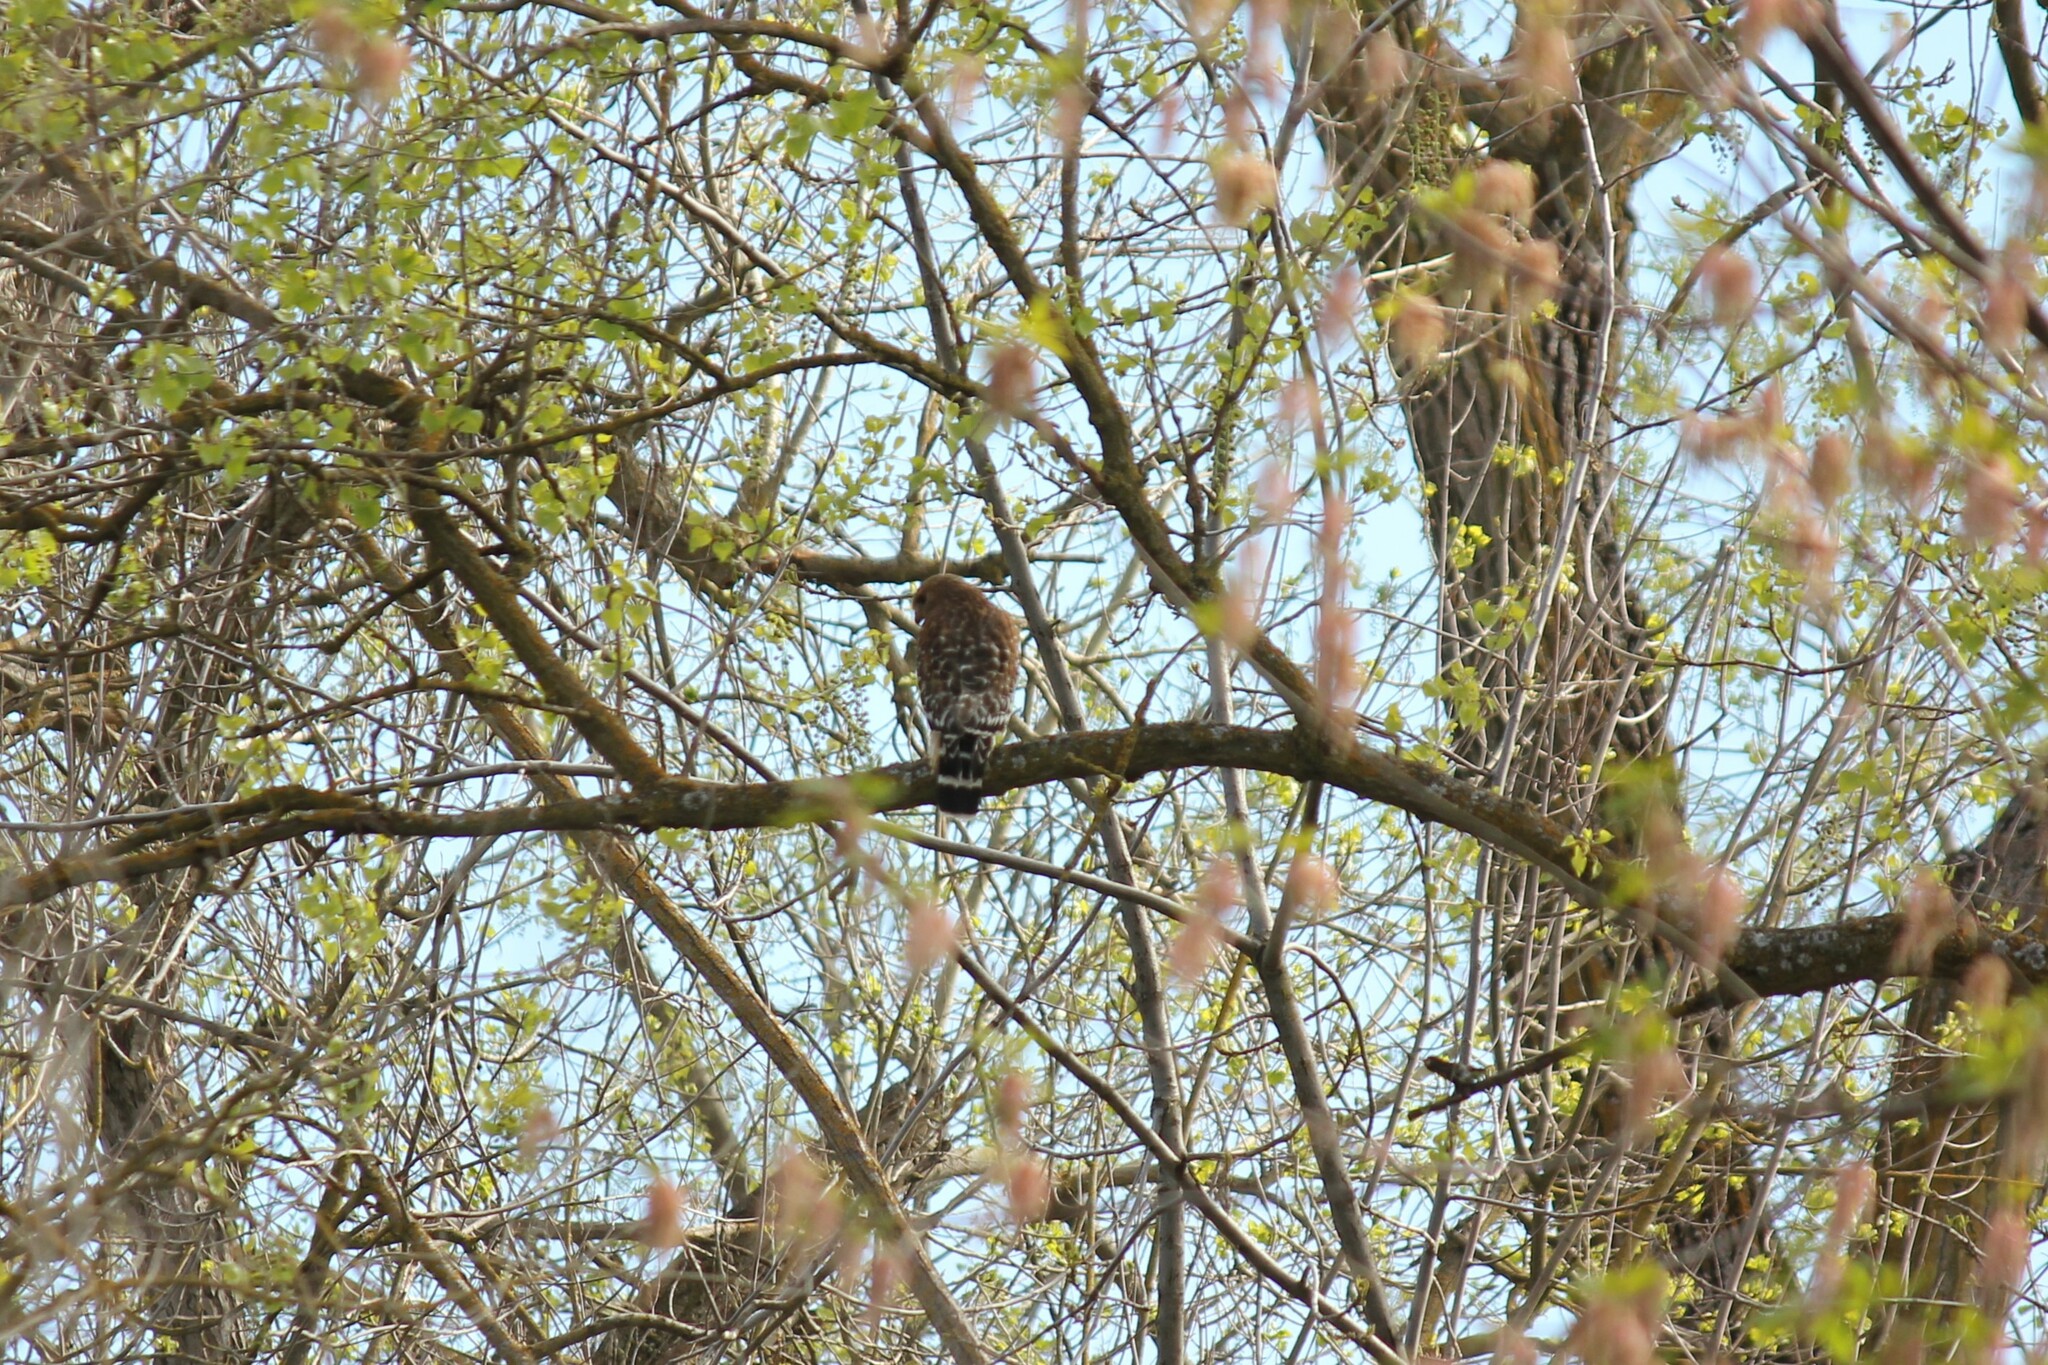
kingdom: Animalia
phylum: Chordata
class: Aves
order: Accipitriformes
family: Accipitridae
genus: Buteo
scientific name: Buteo lineatus
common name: Red-shouldered hawk
